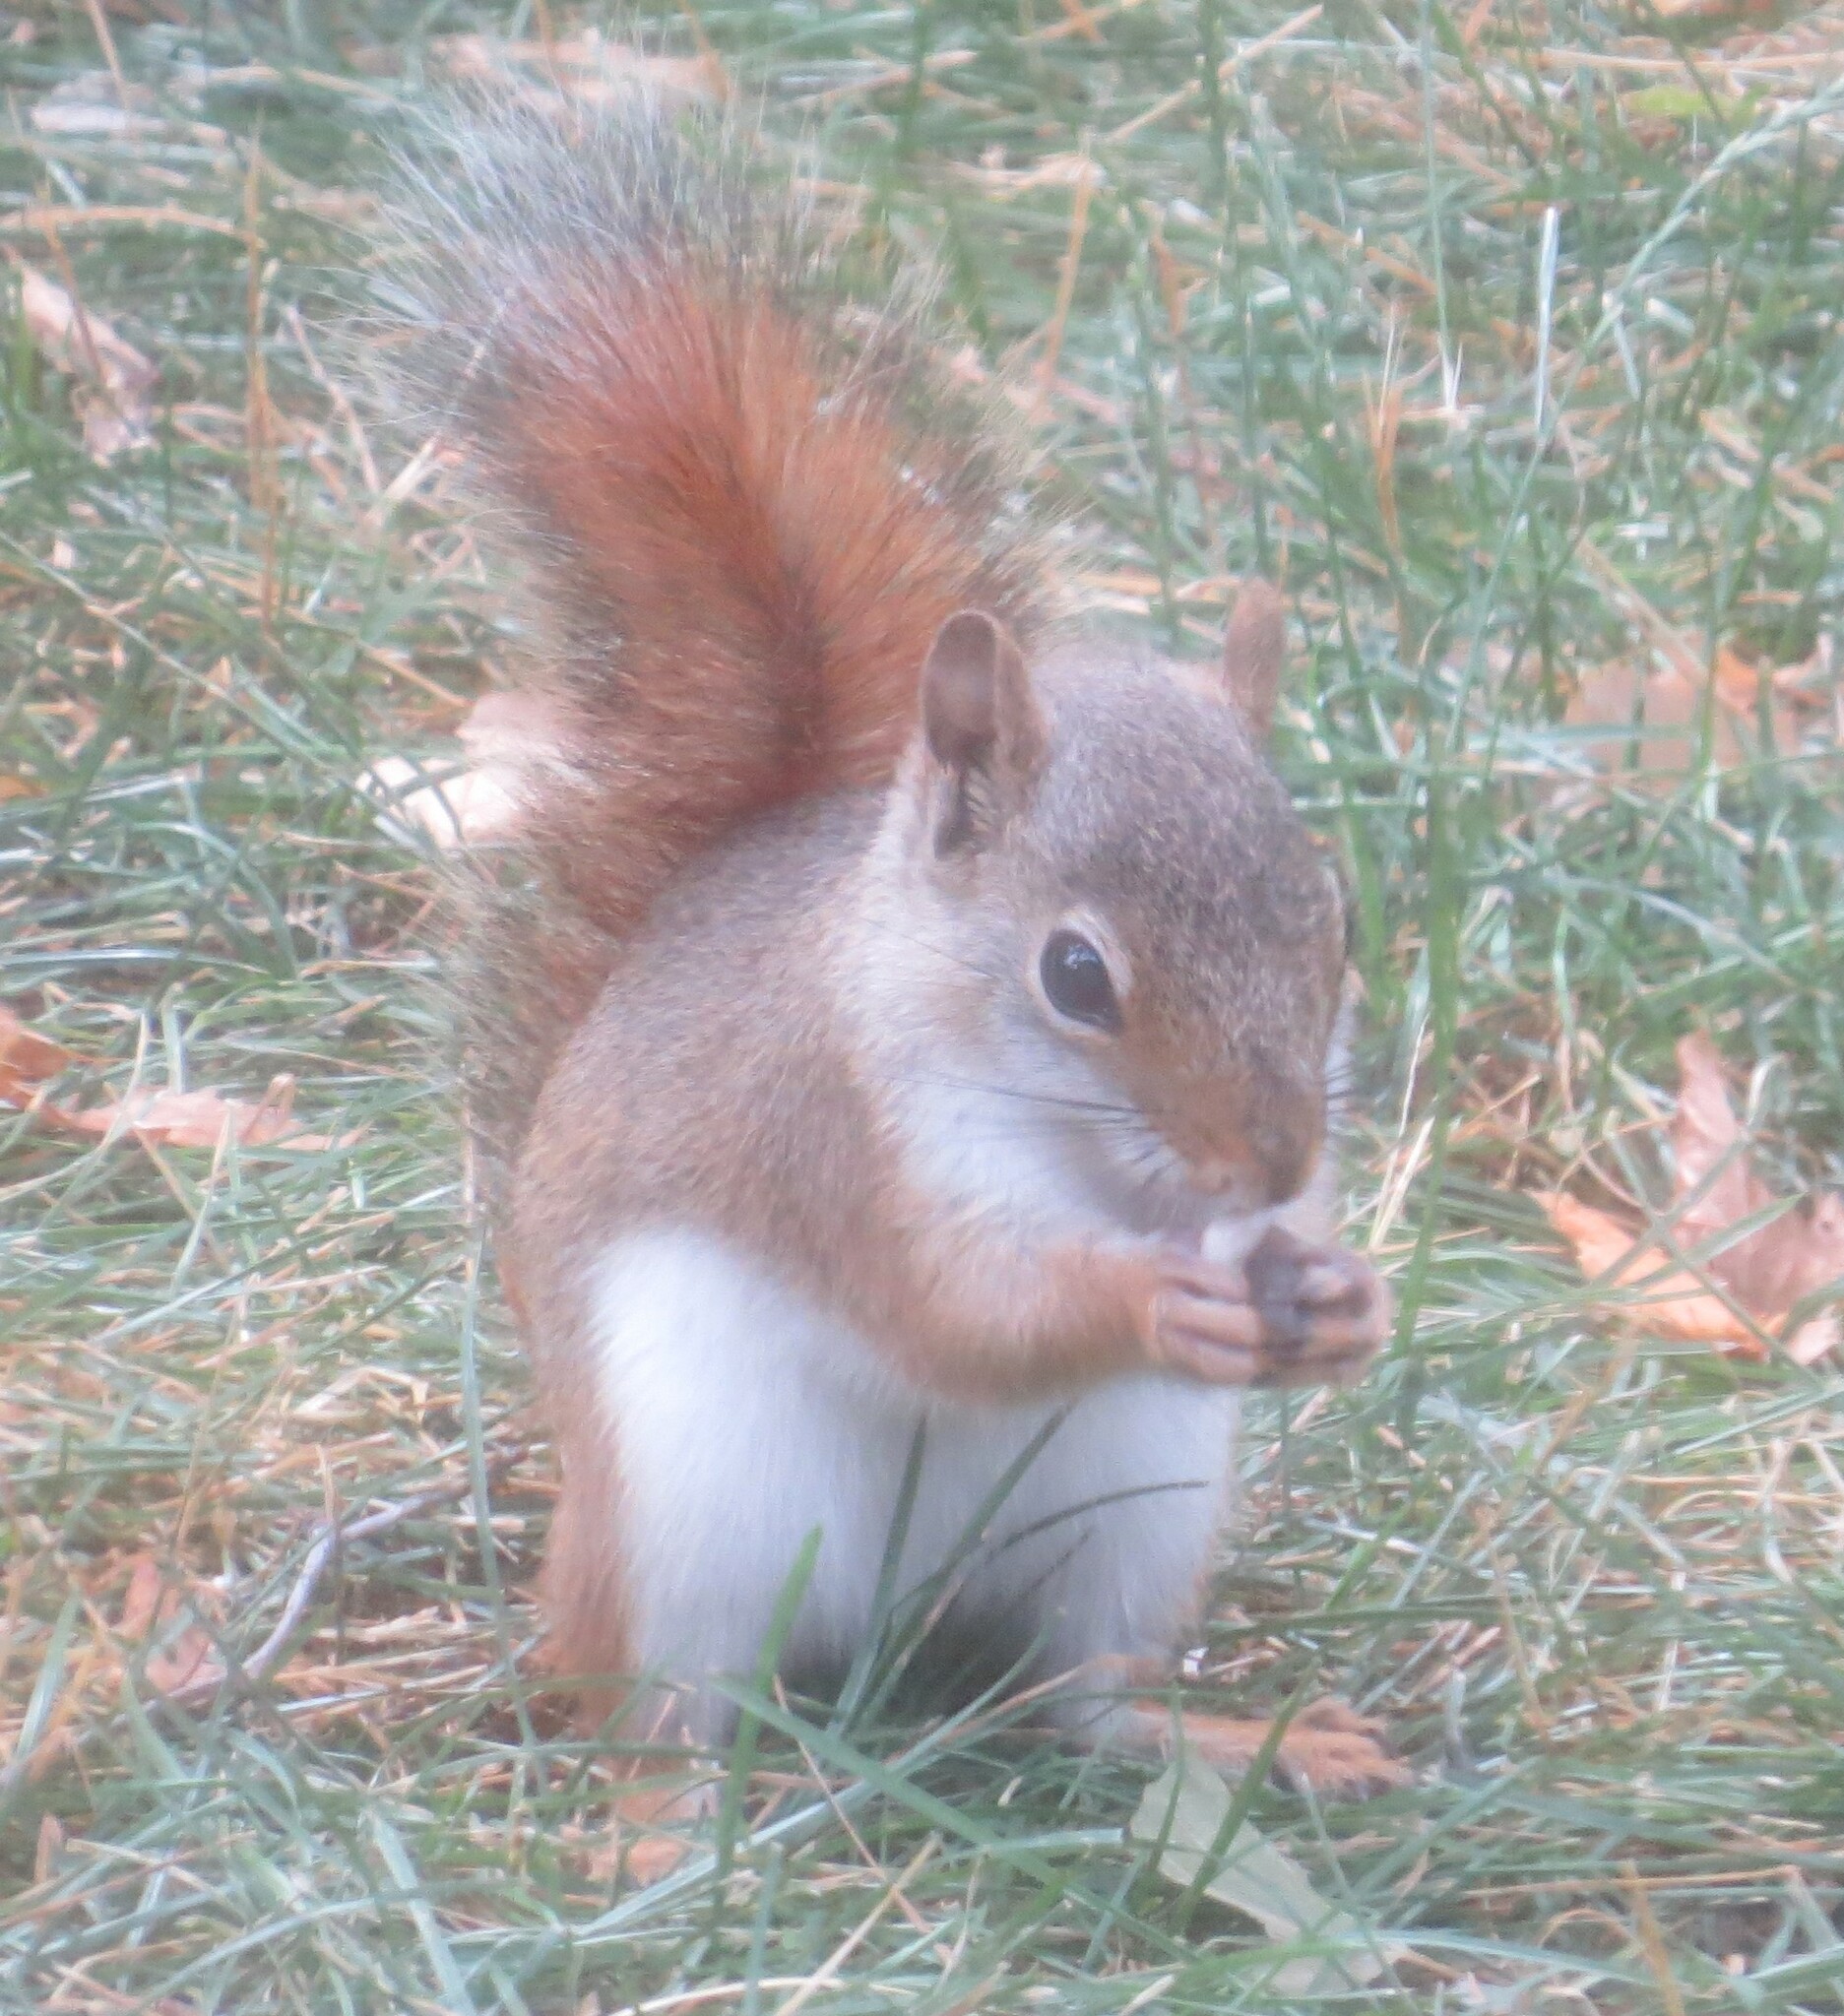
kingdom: Animalia
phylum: Chordata
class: Mammalia
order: Rodentia
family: Sciuridae
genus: Tamiasciurus
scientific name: Tamiasciurus hudsonicus
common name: Red squirrel
